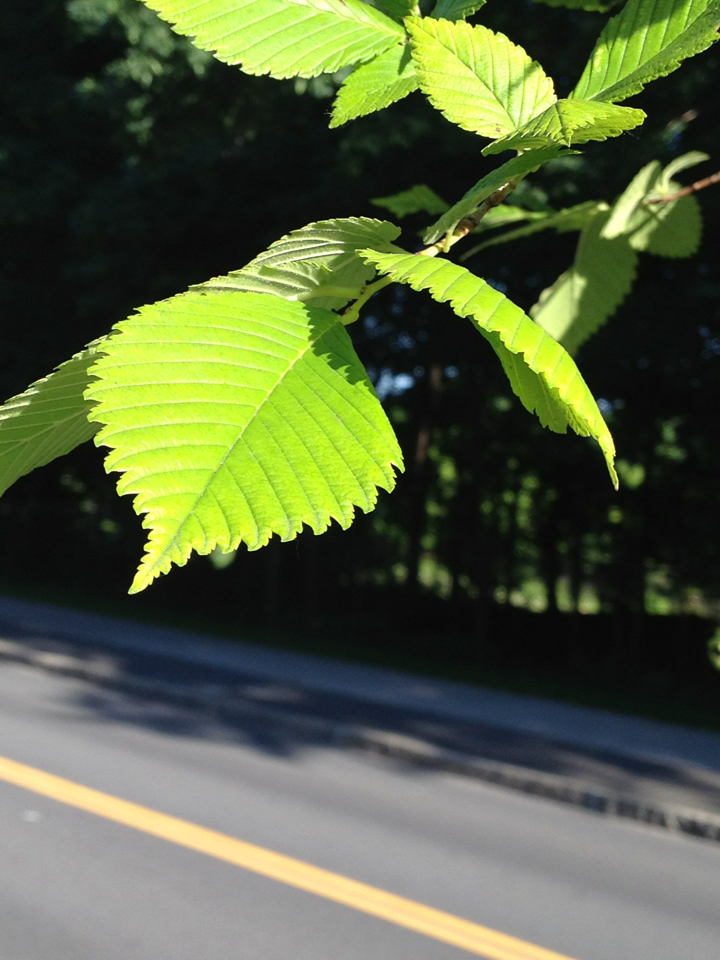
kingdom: Plantae
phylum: Tracheophyta
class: Magnoliopsida
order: Rosales
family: Ulmaceae
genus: Ulmus
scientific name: Ulmus americana
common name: American elm
